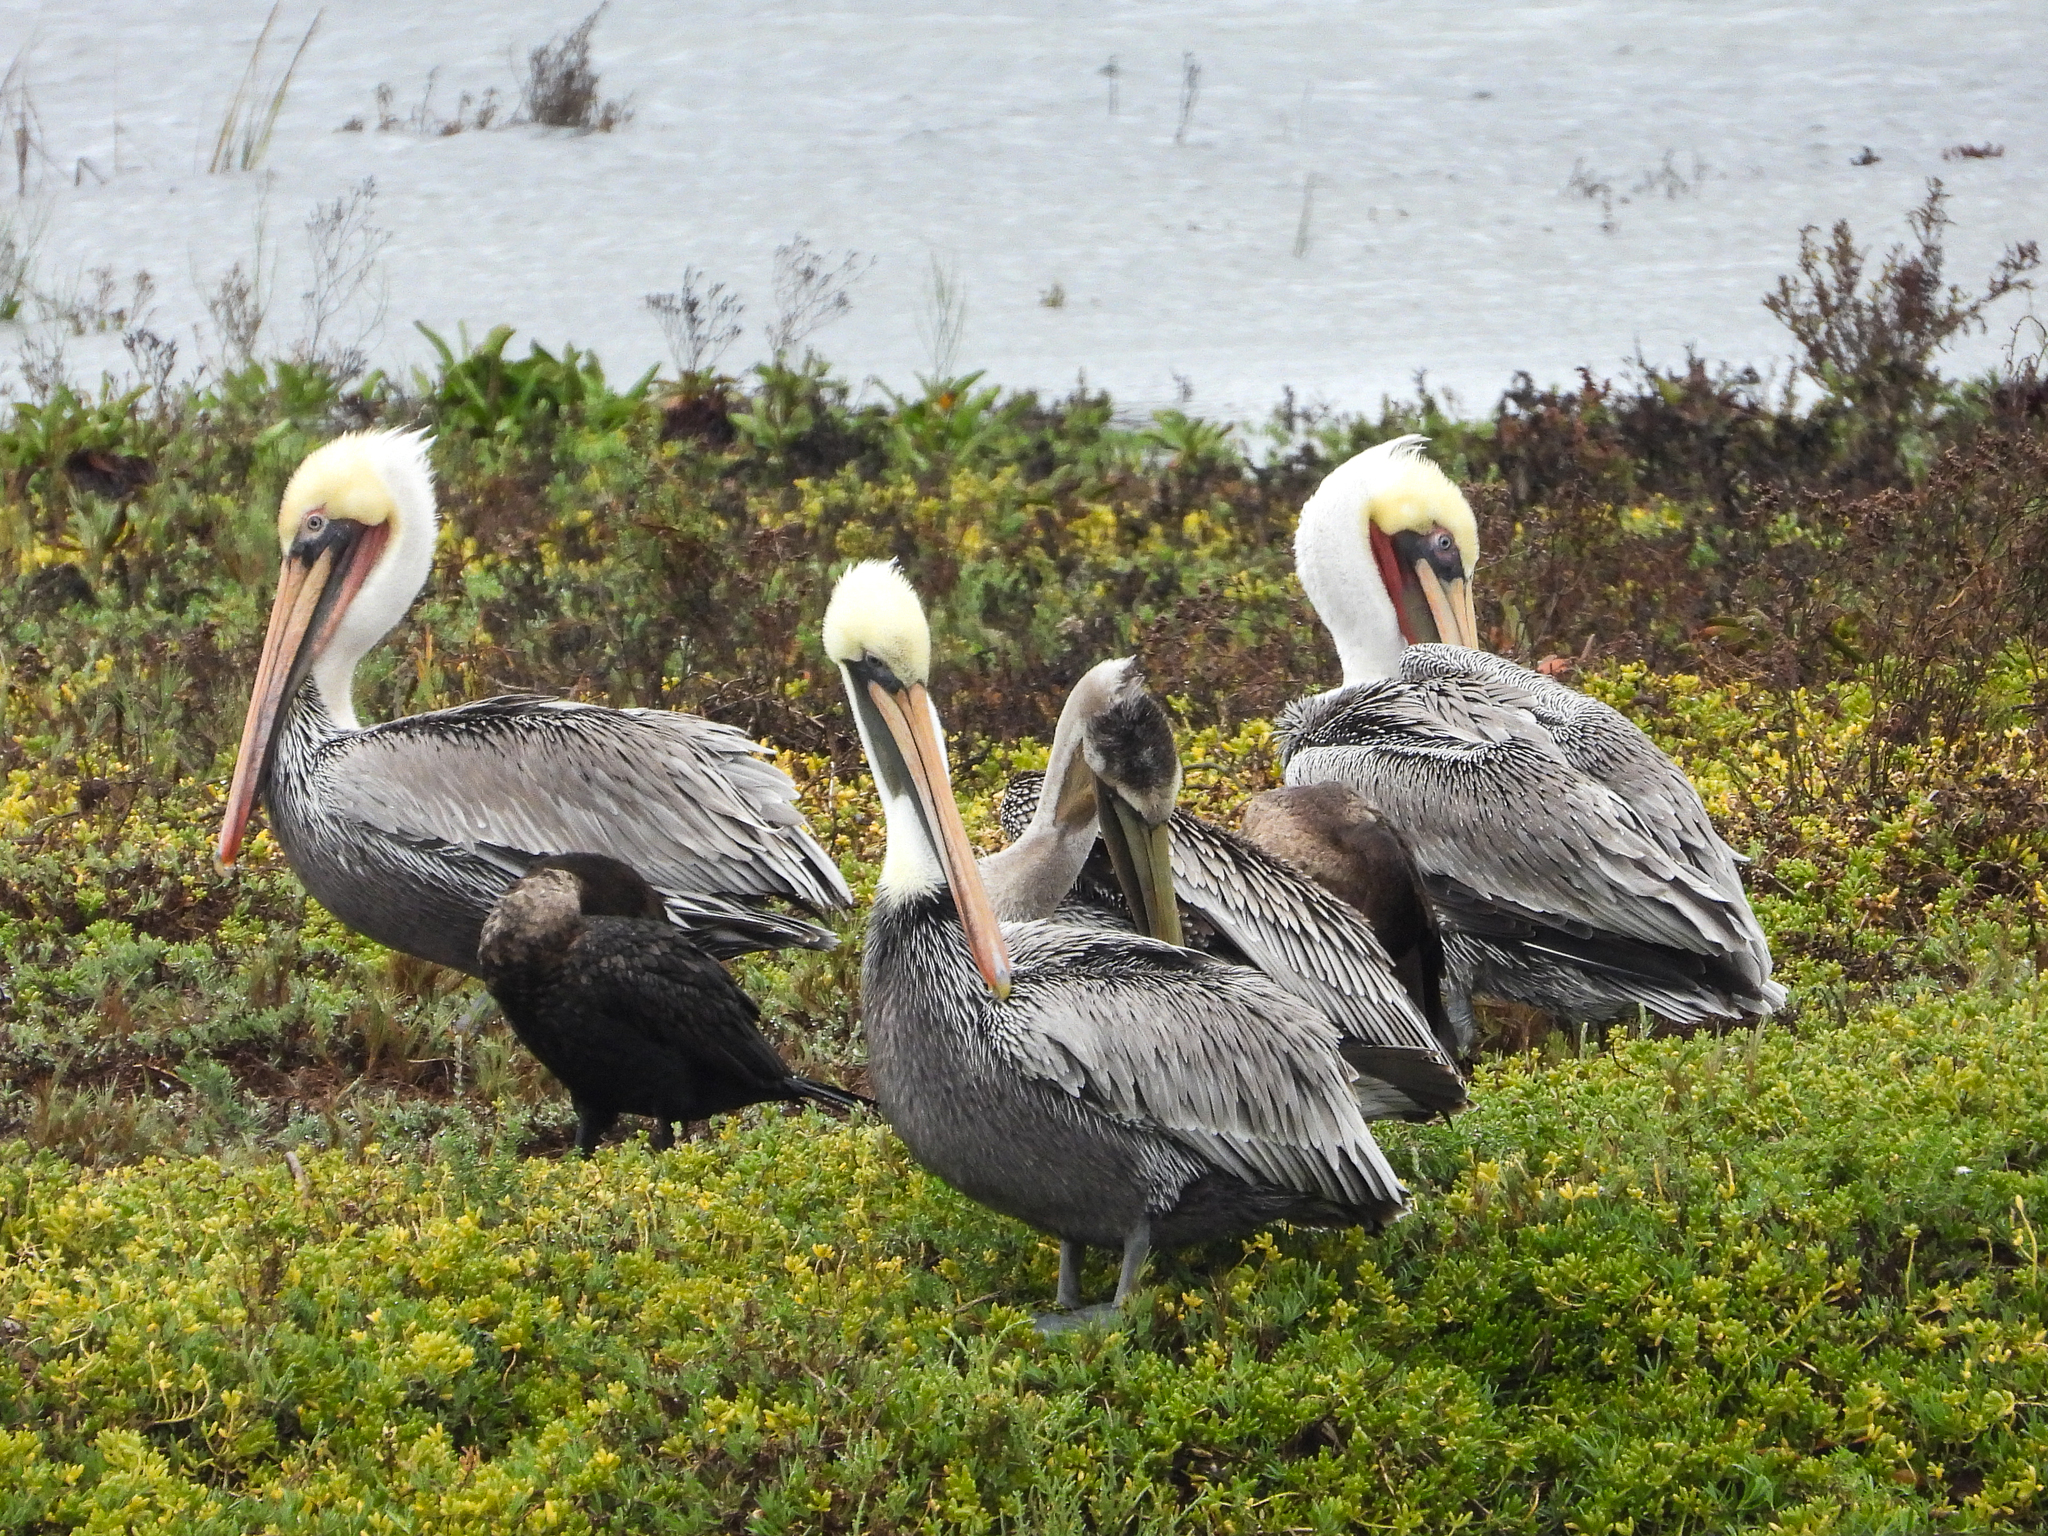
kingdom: Animalia
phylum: Chordata
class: Aves
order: Pelecaniformes
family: Pelecanidae
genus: Pelecanus
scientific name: Pelecanus occidentalis
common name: Brown pelican
